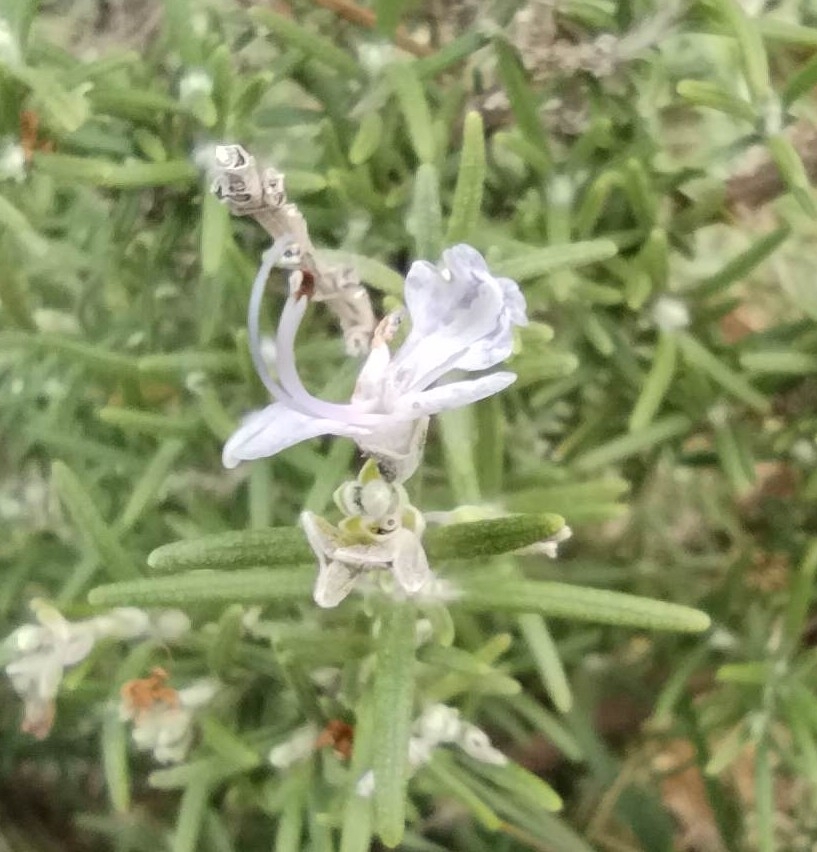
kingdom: Plantae
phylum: Tracheophyta
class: Magnoliopsida
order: Lamiales
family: Lamiaceae
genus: Salvia
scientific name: Salvia rosmarinus
